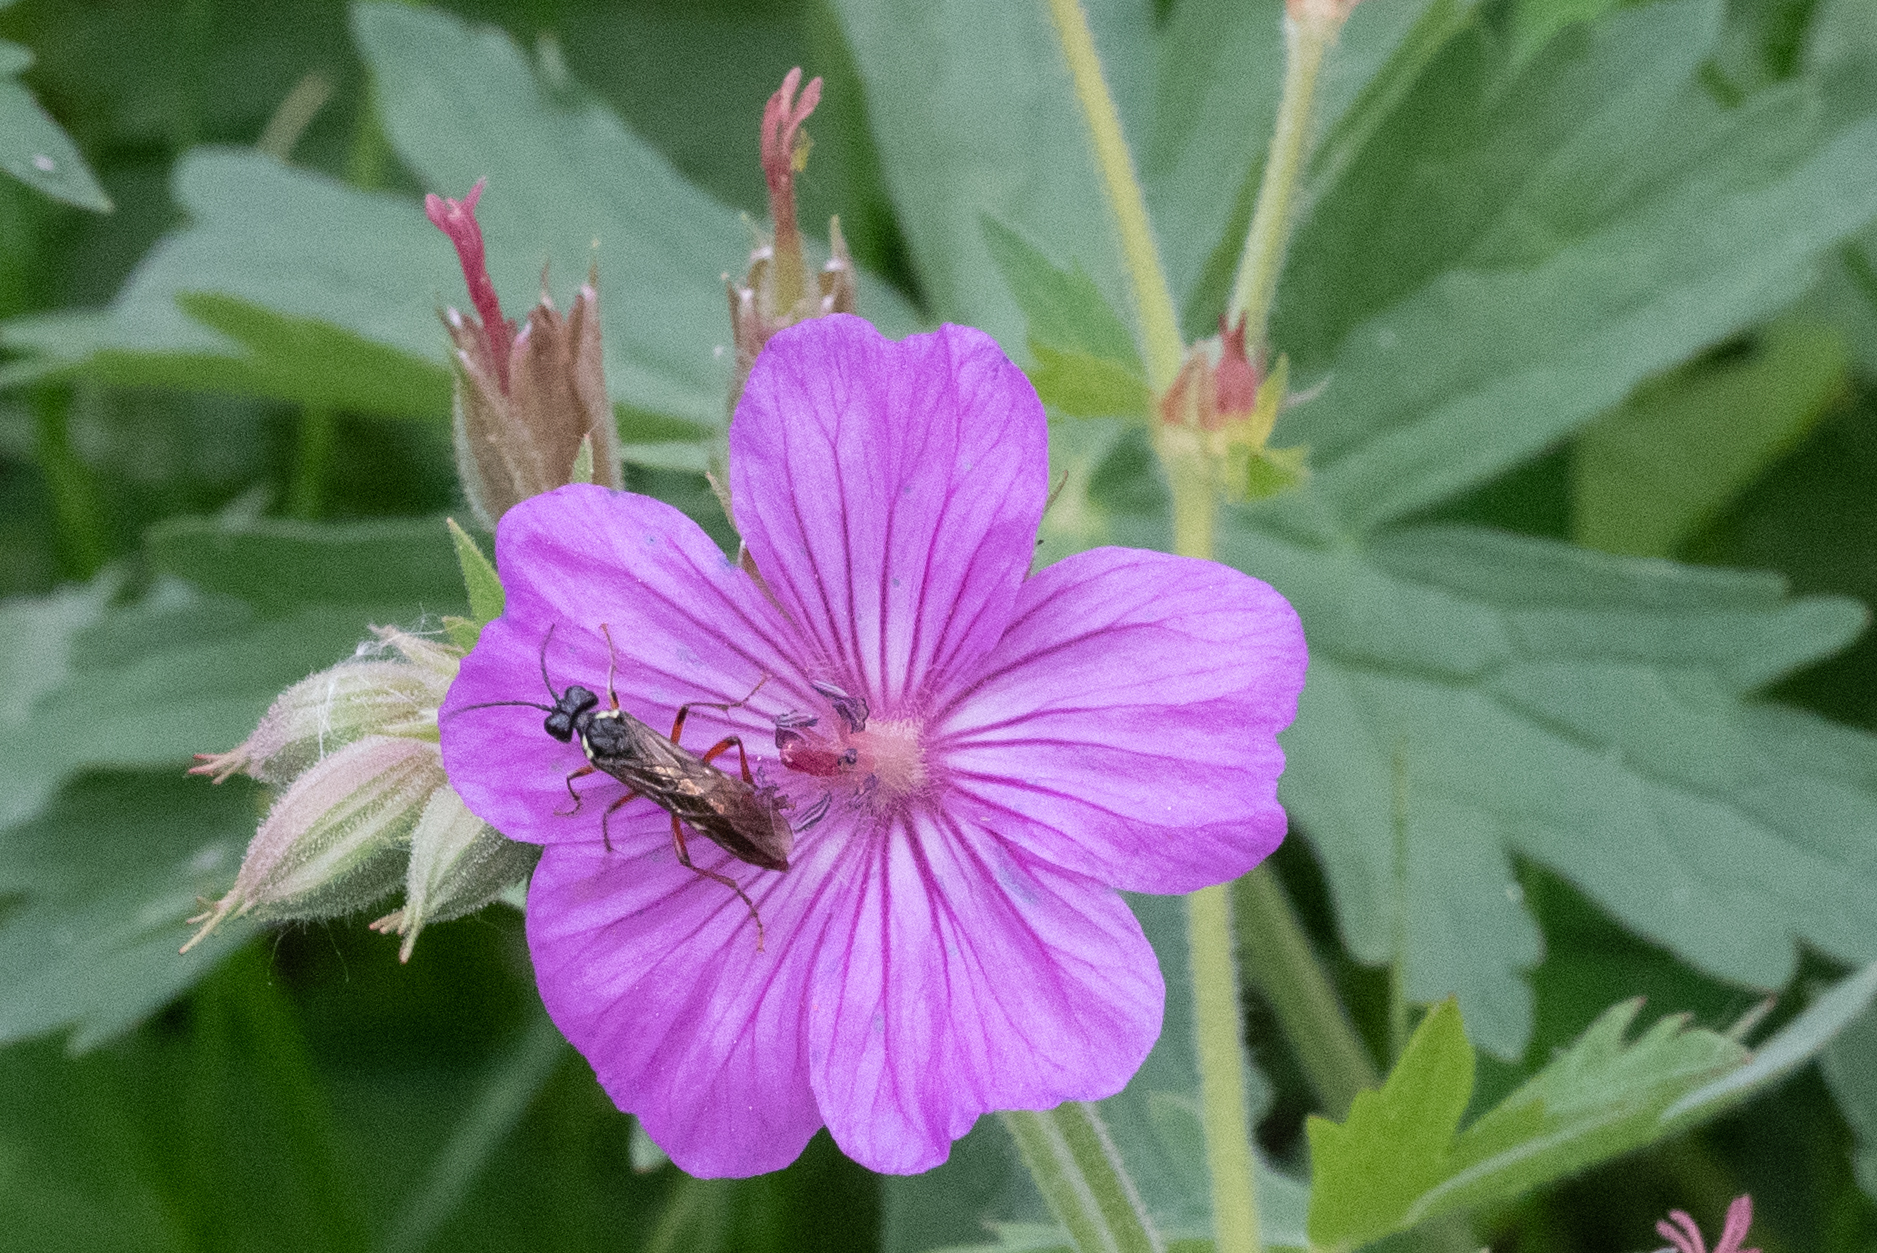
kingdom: Plantae
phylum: Tracheophyta
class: Magnoliopsida
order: Geraniales
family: Geraniaceae
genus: Geranium
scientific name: Geranium viscosissimum
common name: Purple geranium
